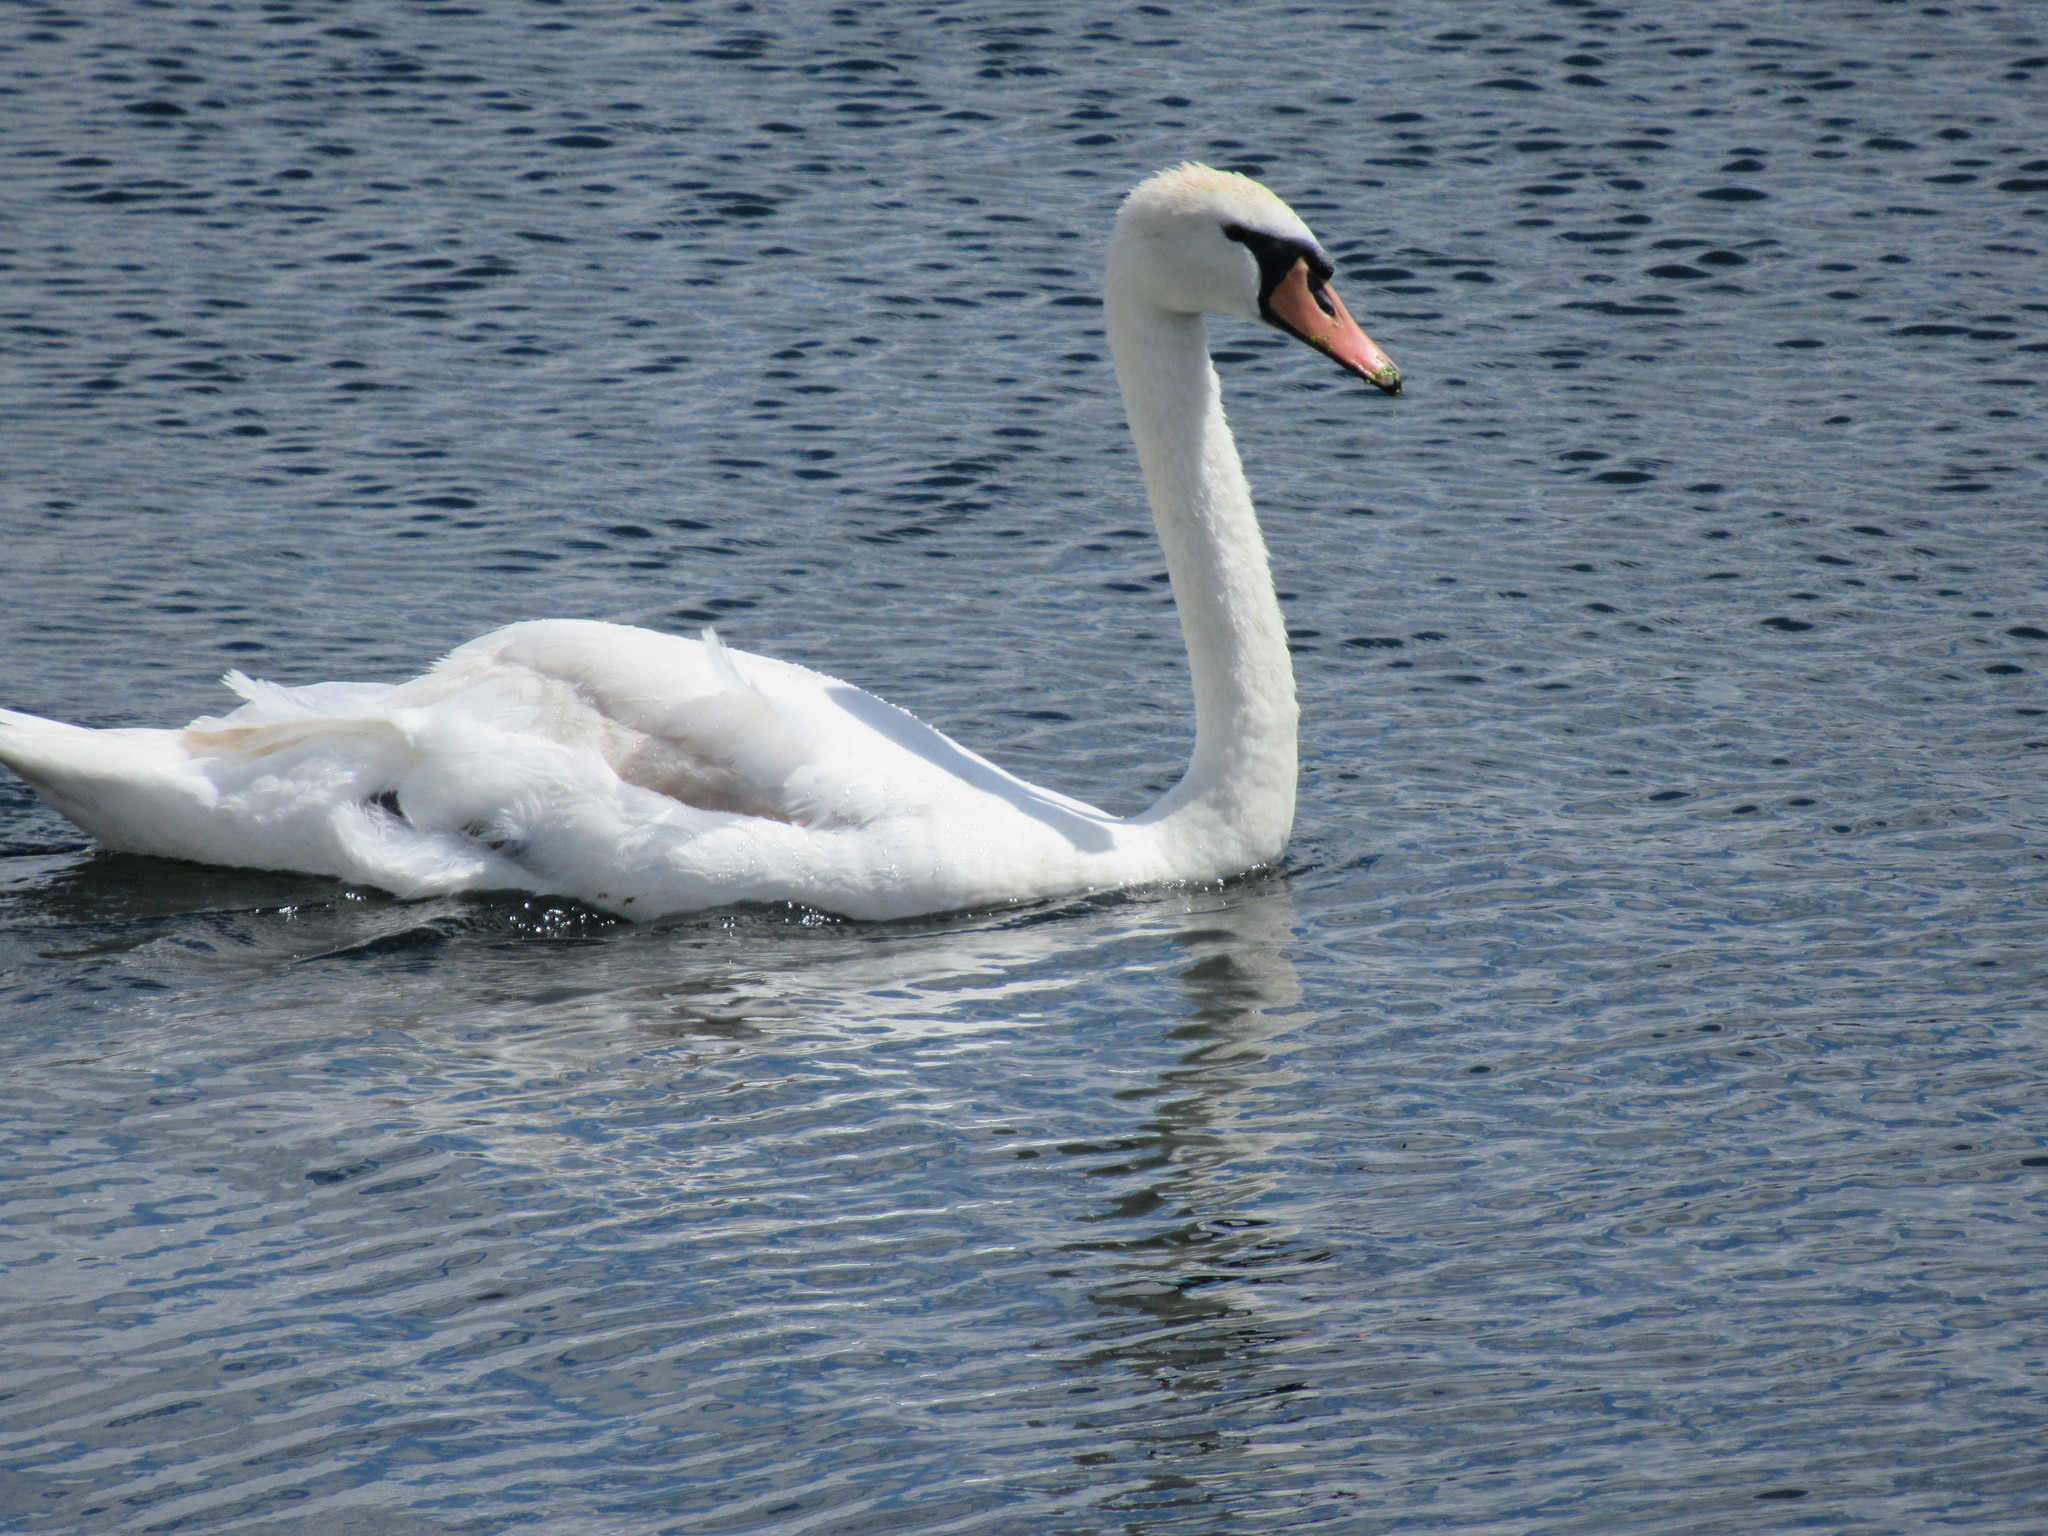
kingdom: Animalia
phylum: Chordata
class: Aves
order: Anseriformes
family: Anatidae
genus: Cygnus
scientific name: Cygnus olor
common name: Mute swan
